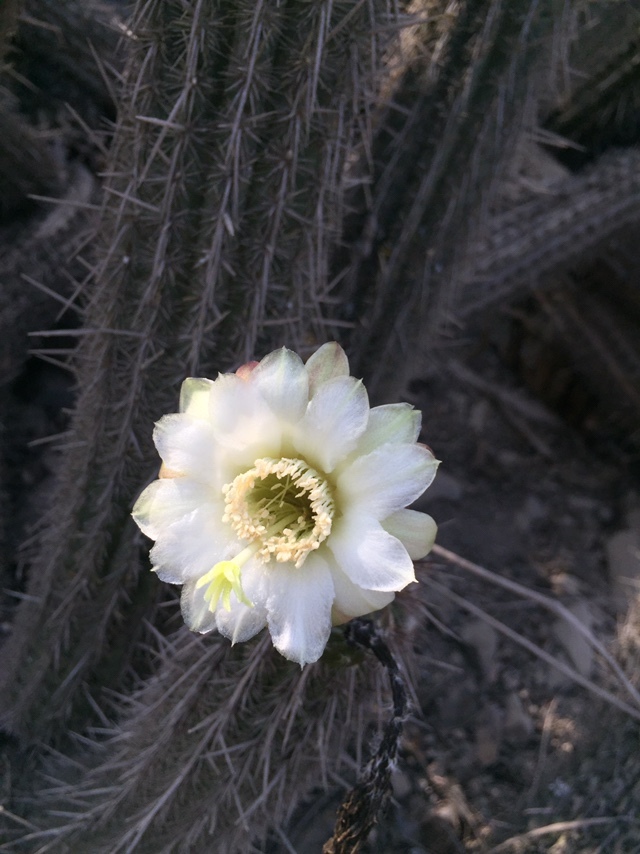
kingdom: Plantae
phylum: Tracheophyta
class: Magnoliopsida
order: Caryophyllales
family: Cactaceae
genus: Haageocereus
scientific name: Haageocereus acranthus
